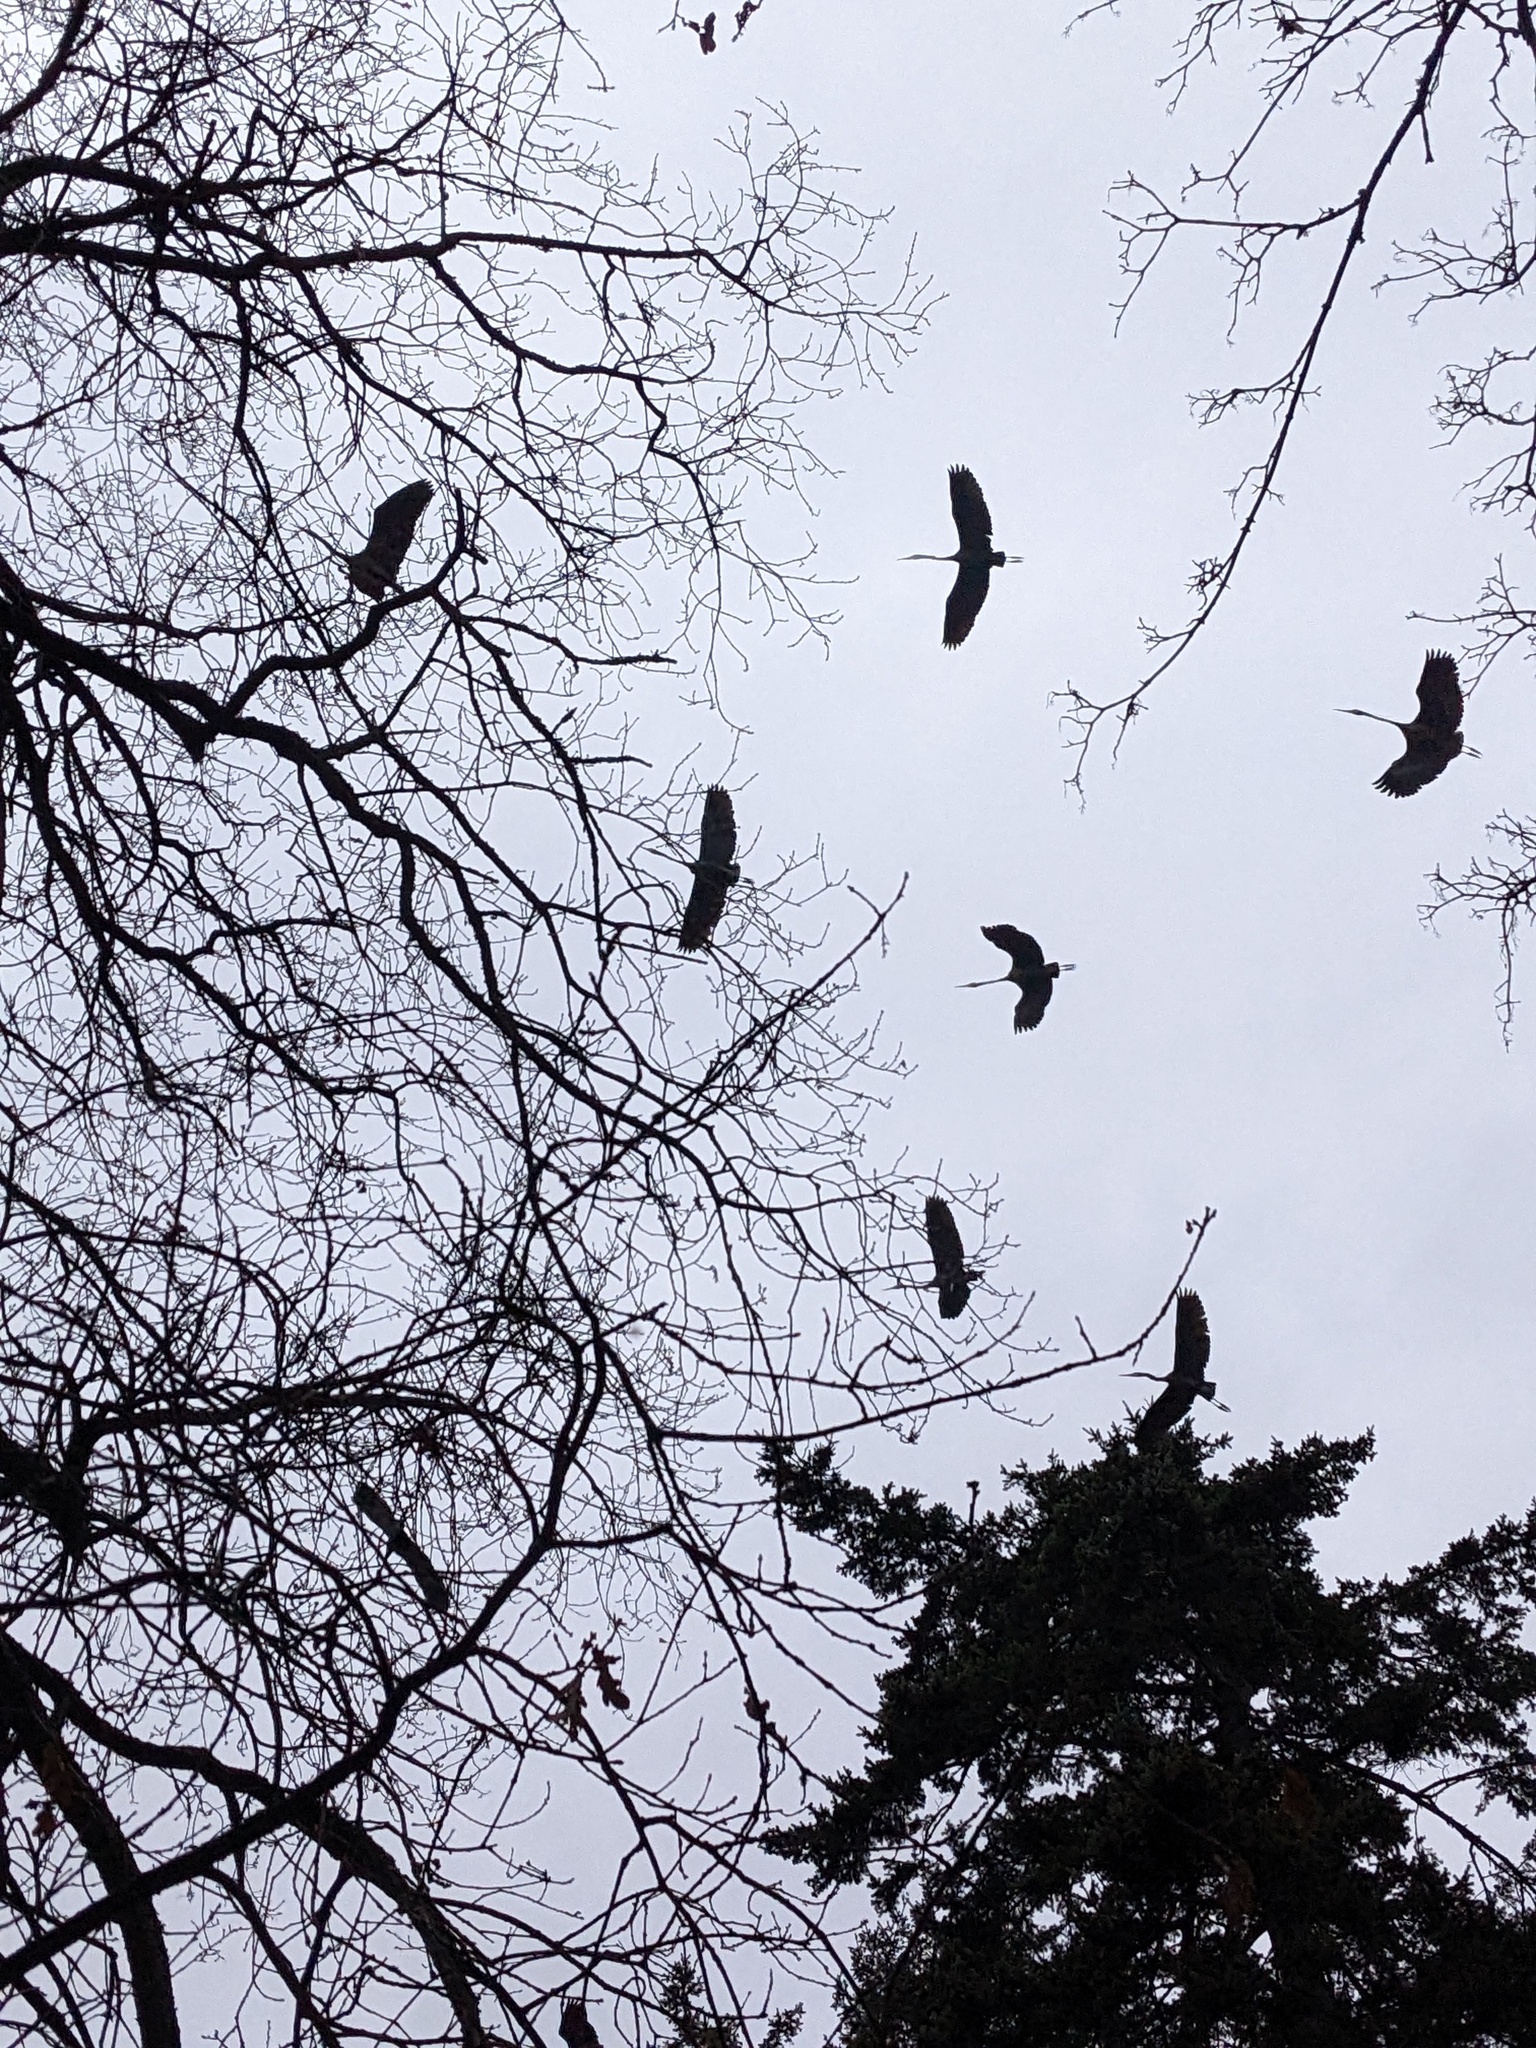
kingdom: Animalia
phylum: Chordata
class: Aves
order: Pelecaniformes
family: Ardeidae
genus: Ardea
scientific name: Ardea herodias
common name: Great blue heron
